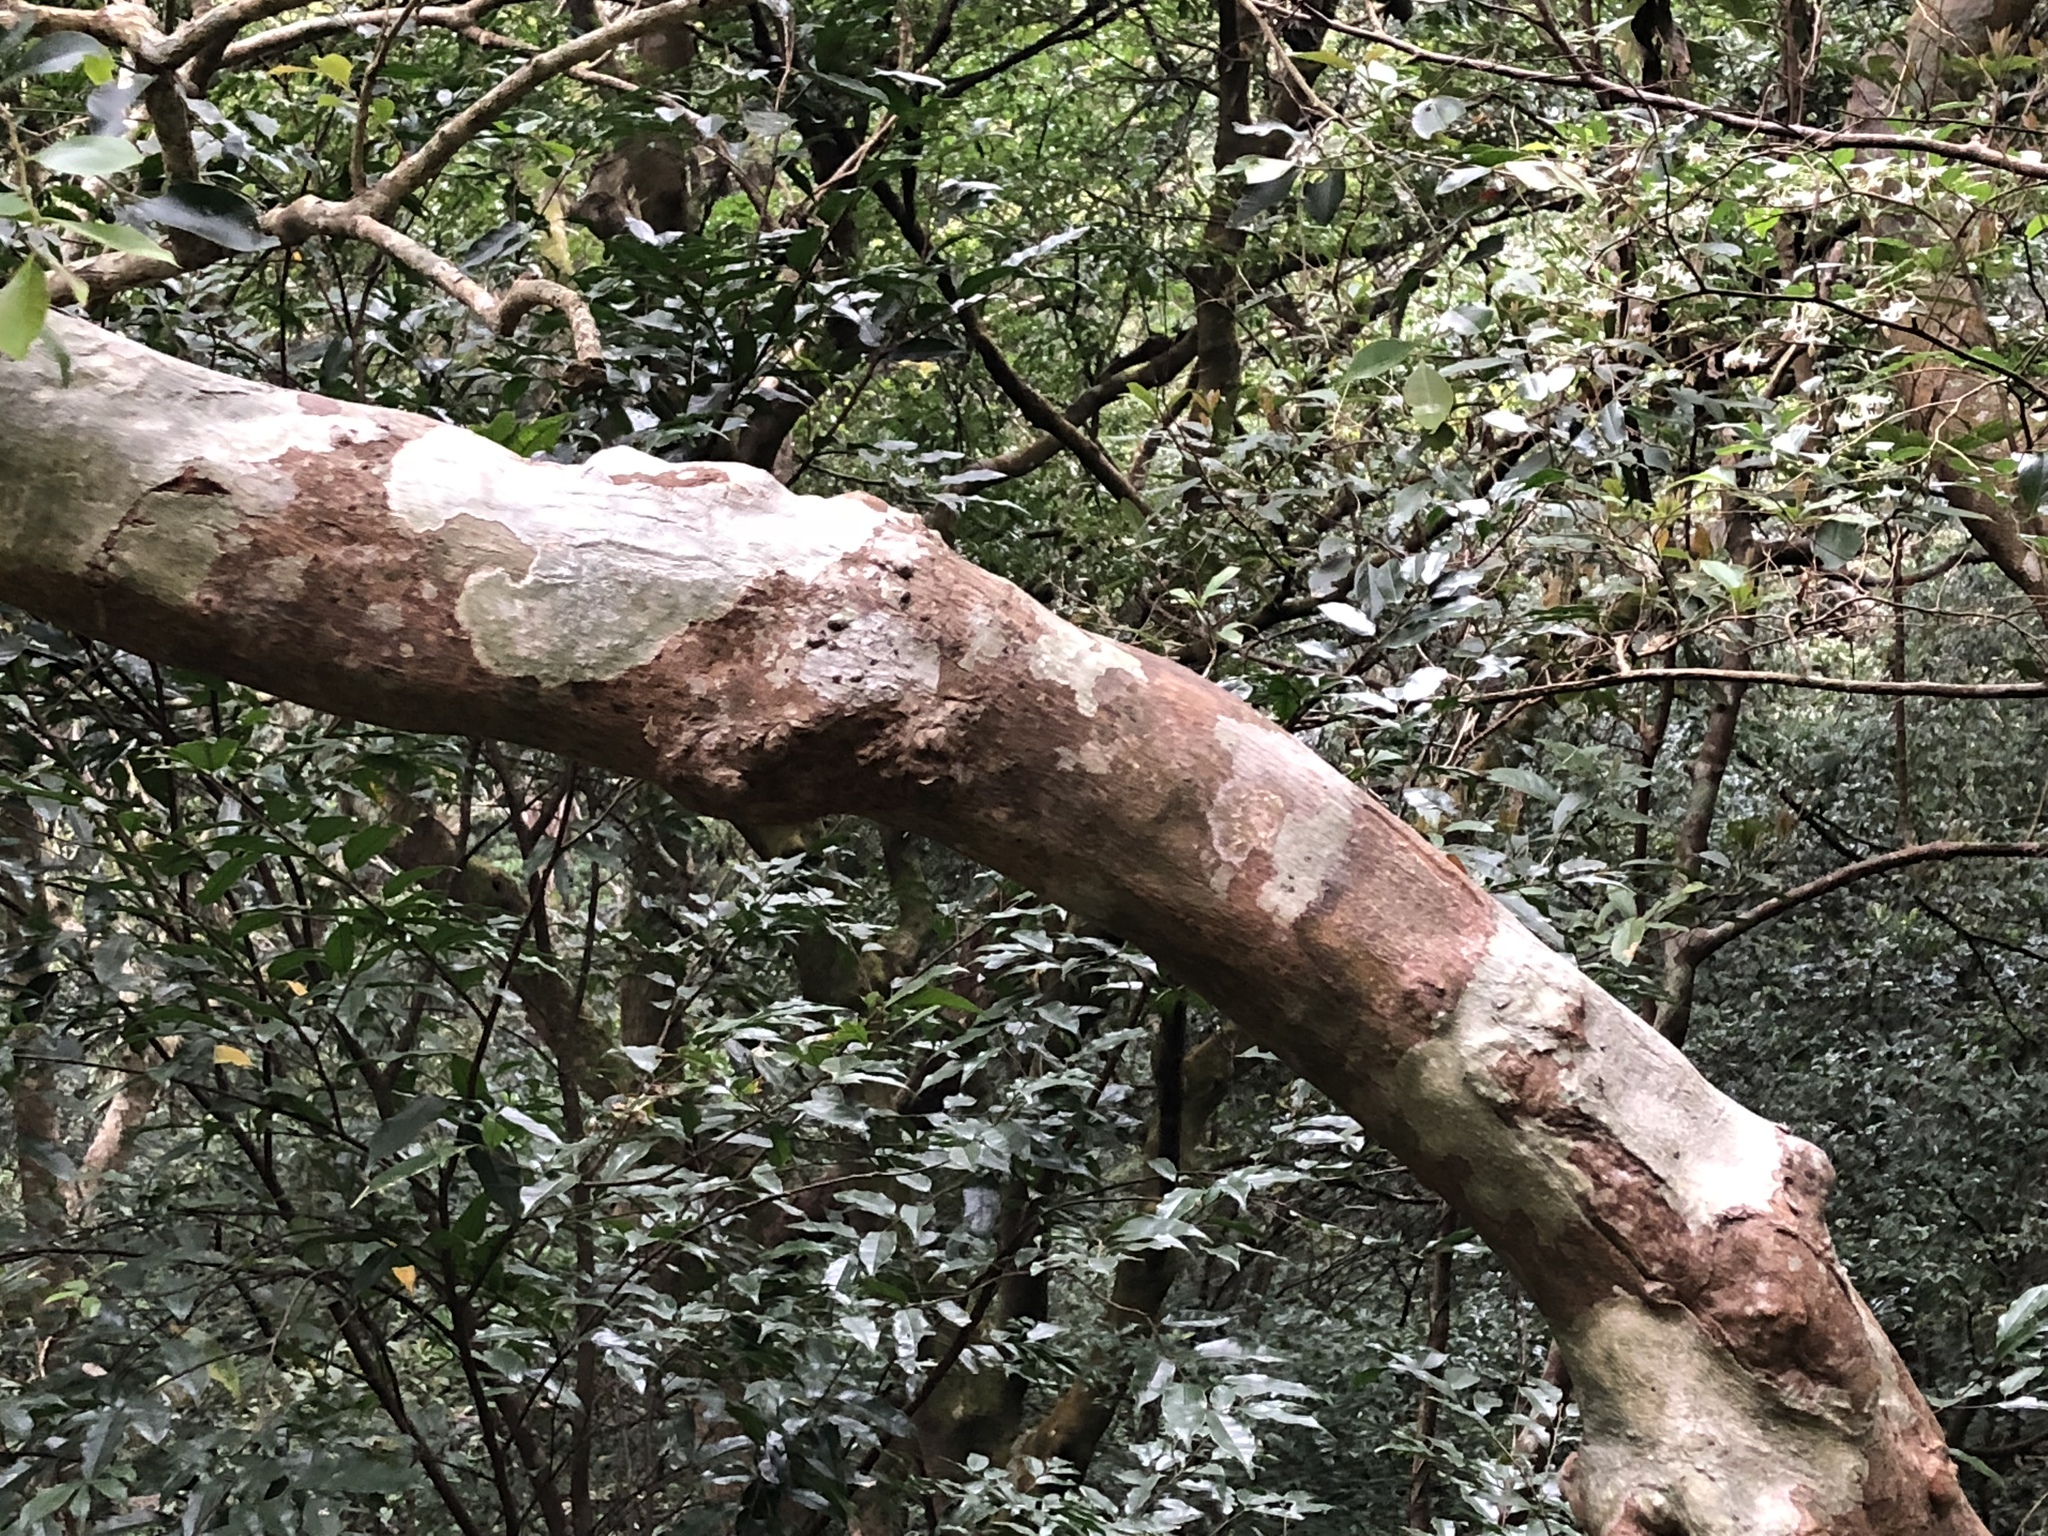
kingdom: Plantae
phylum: Tracheophyta
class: Magnoliopsida
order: Ericales
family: Styracaceae
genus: Styrax
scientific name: Styrax formosanus
